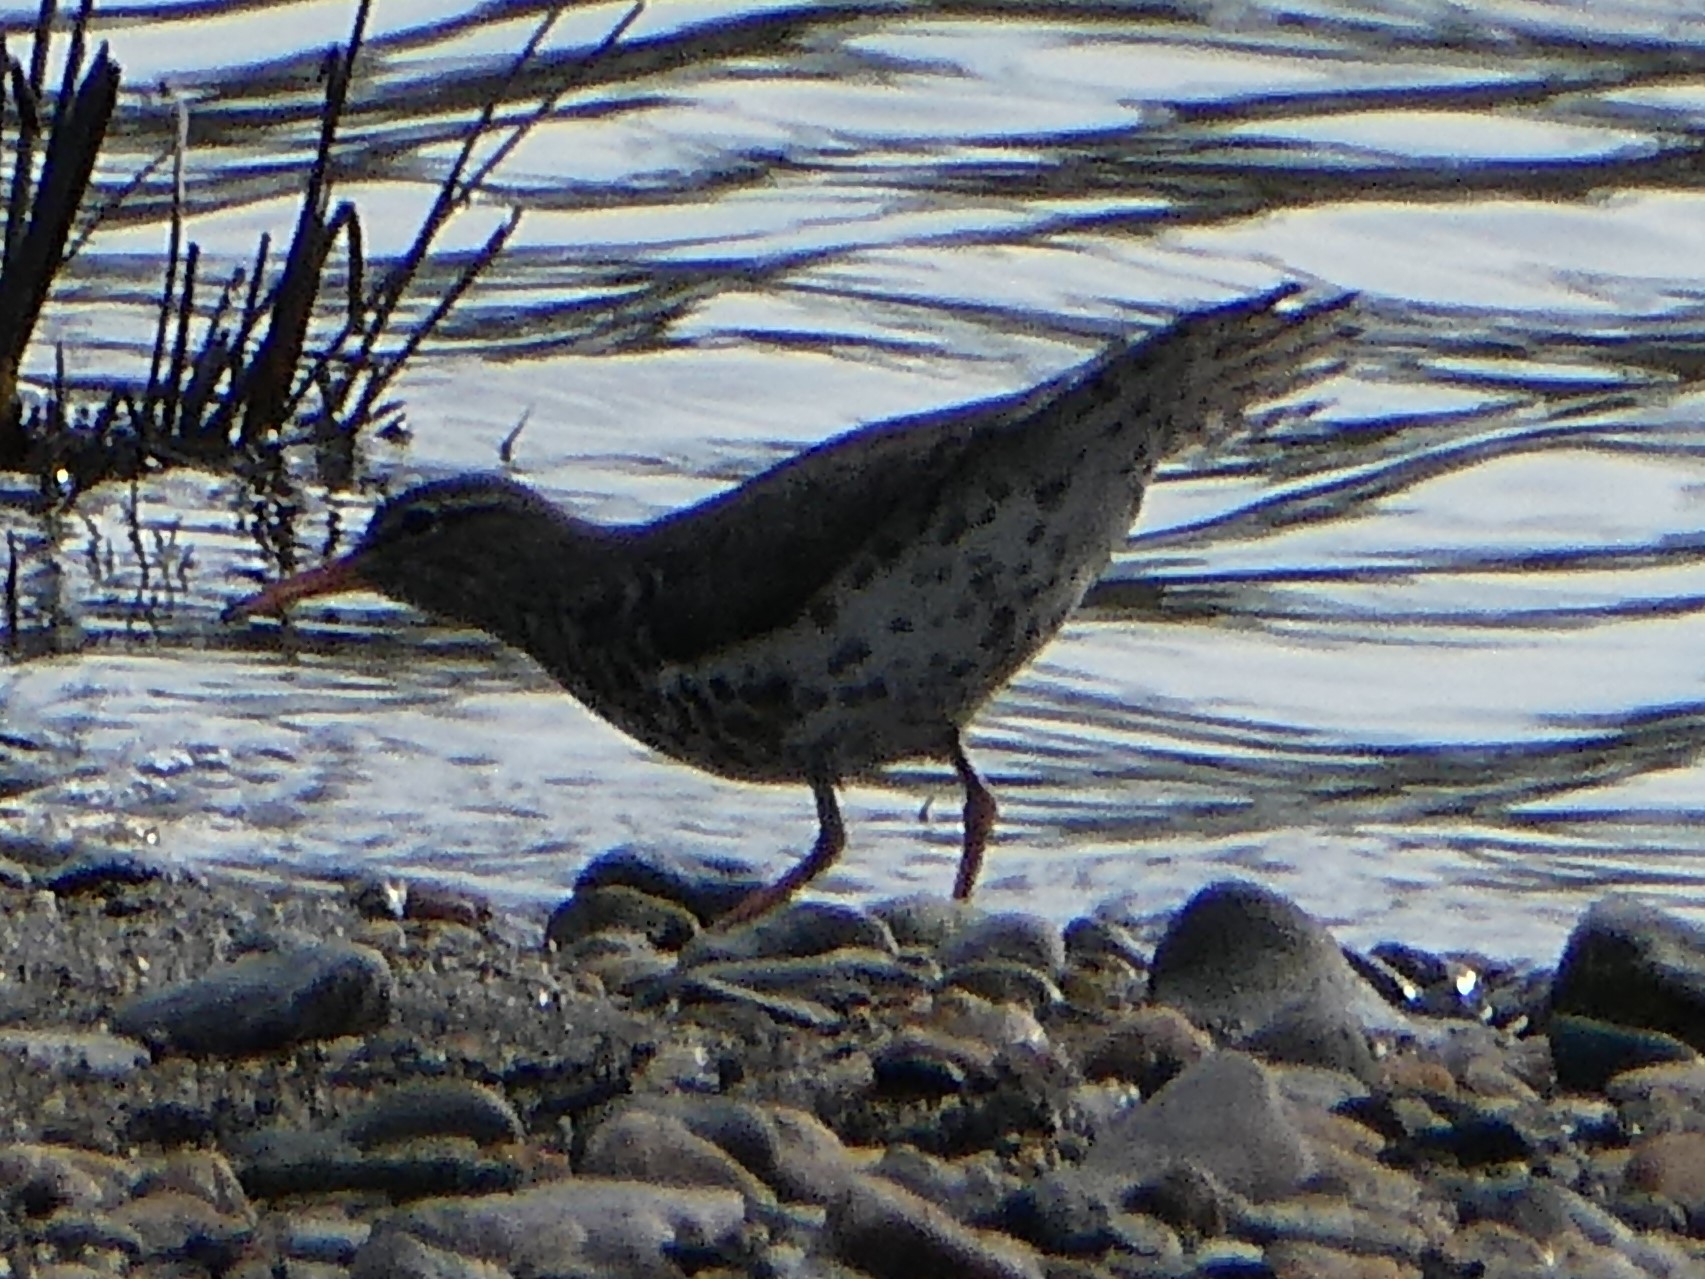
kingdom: Animalia
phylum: Chordata
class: Aves
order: Charadriiformes
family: Scolopacidae
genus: Actitis
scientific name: Actitis macularius
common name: Spotted sandpiper
